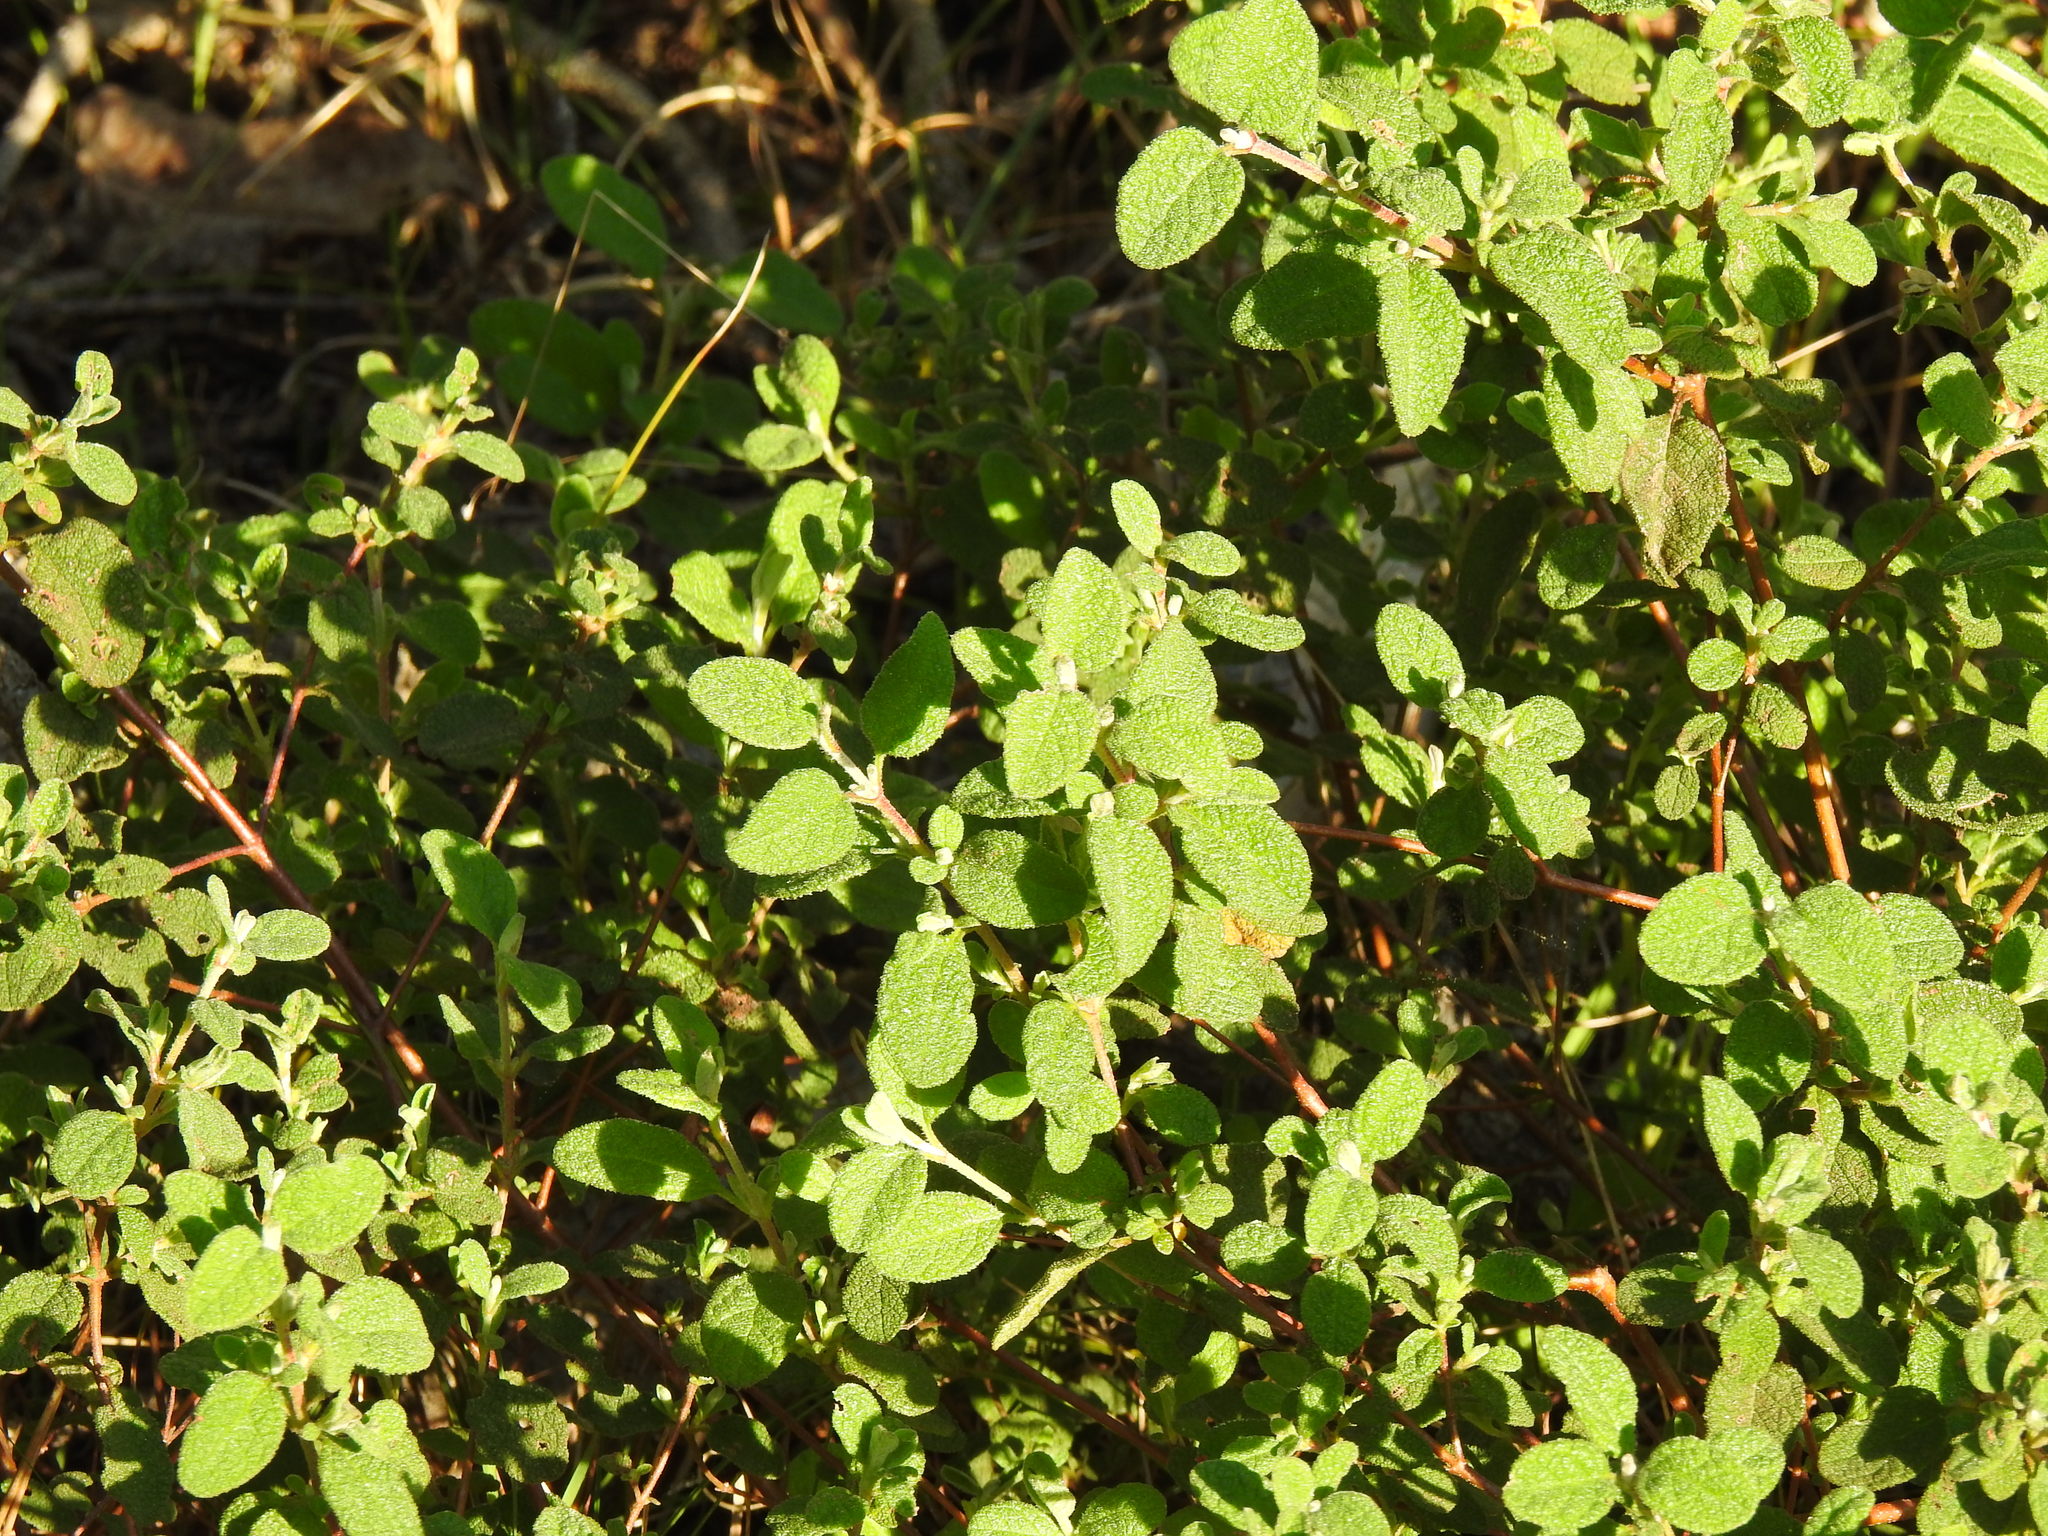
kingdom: Plantae
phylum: Tracheophyta
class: Magnoliopsida
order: Malvales
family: Cistaceae
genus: Cistus
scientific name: Cistus salviifolius
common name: Salvia cistus
